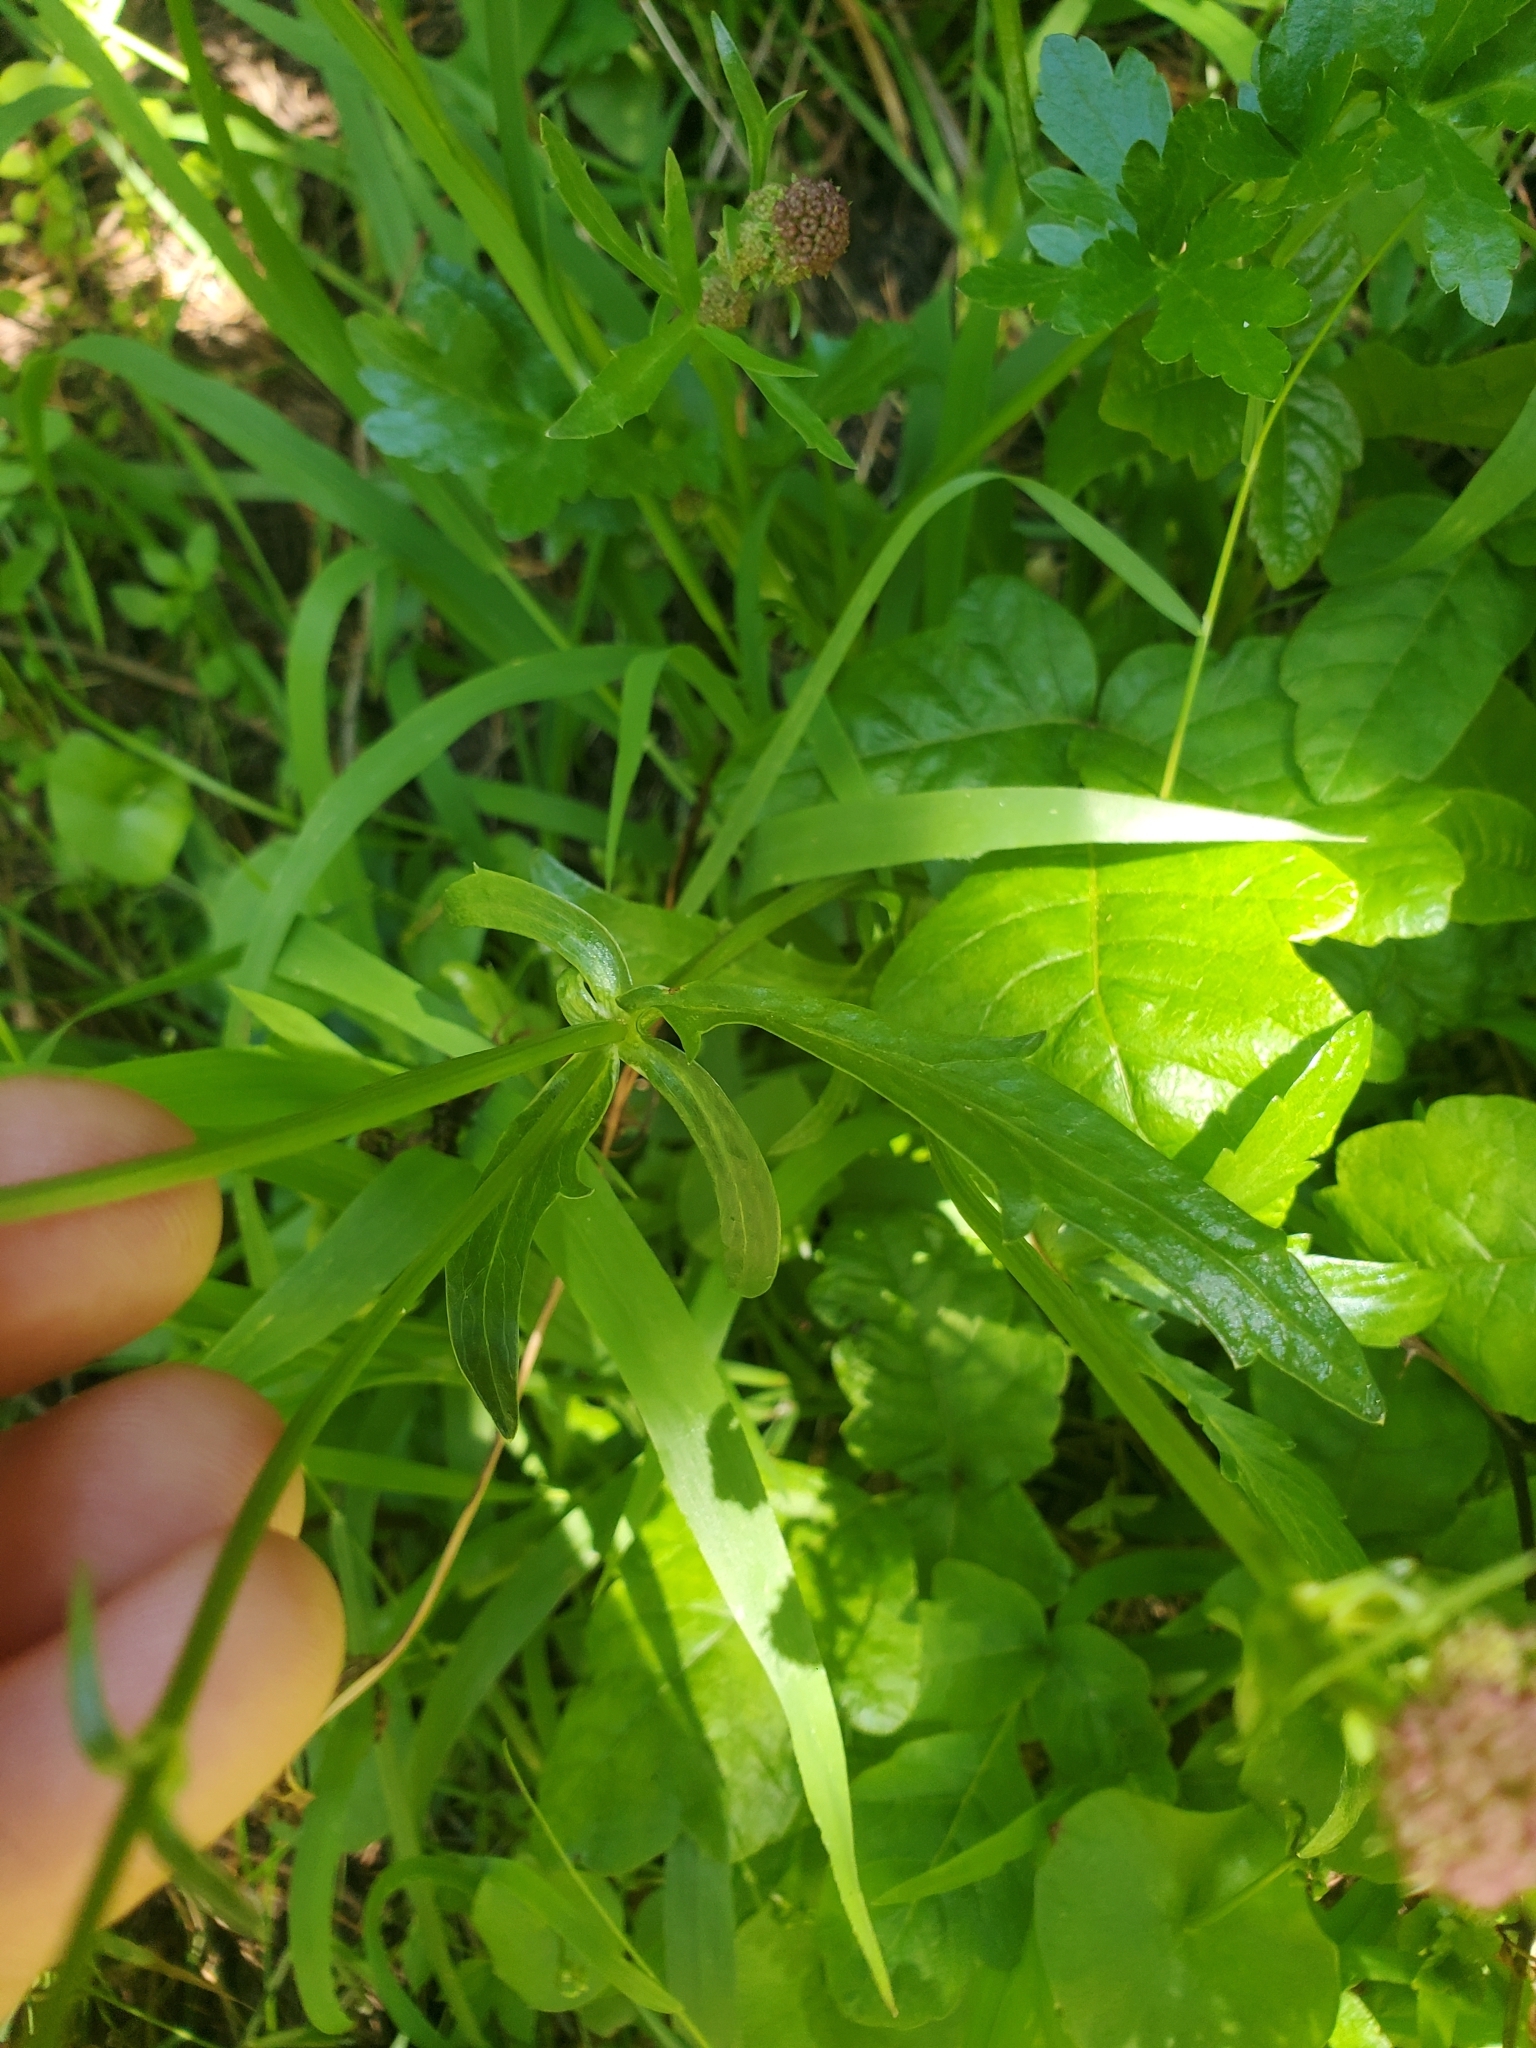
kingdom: Plantae
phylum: Tracheophyta
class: Magnoliopsida
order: Apiales
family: Apiaceae
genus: Sanicula
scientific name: Sanicula bipinnatifida
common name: Shoe-buttons
